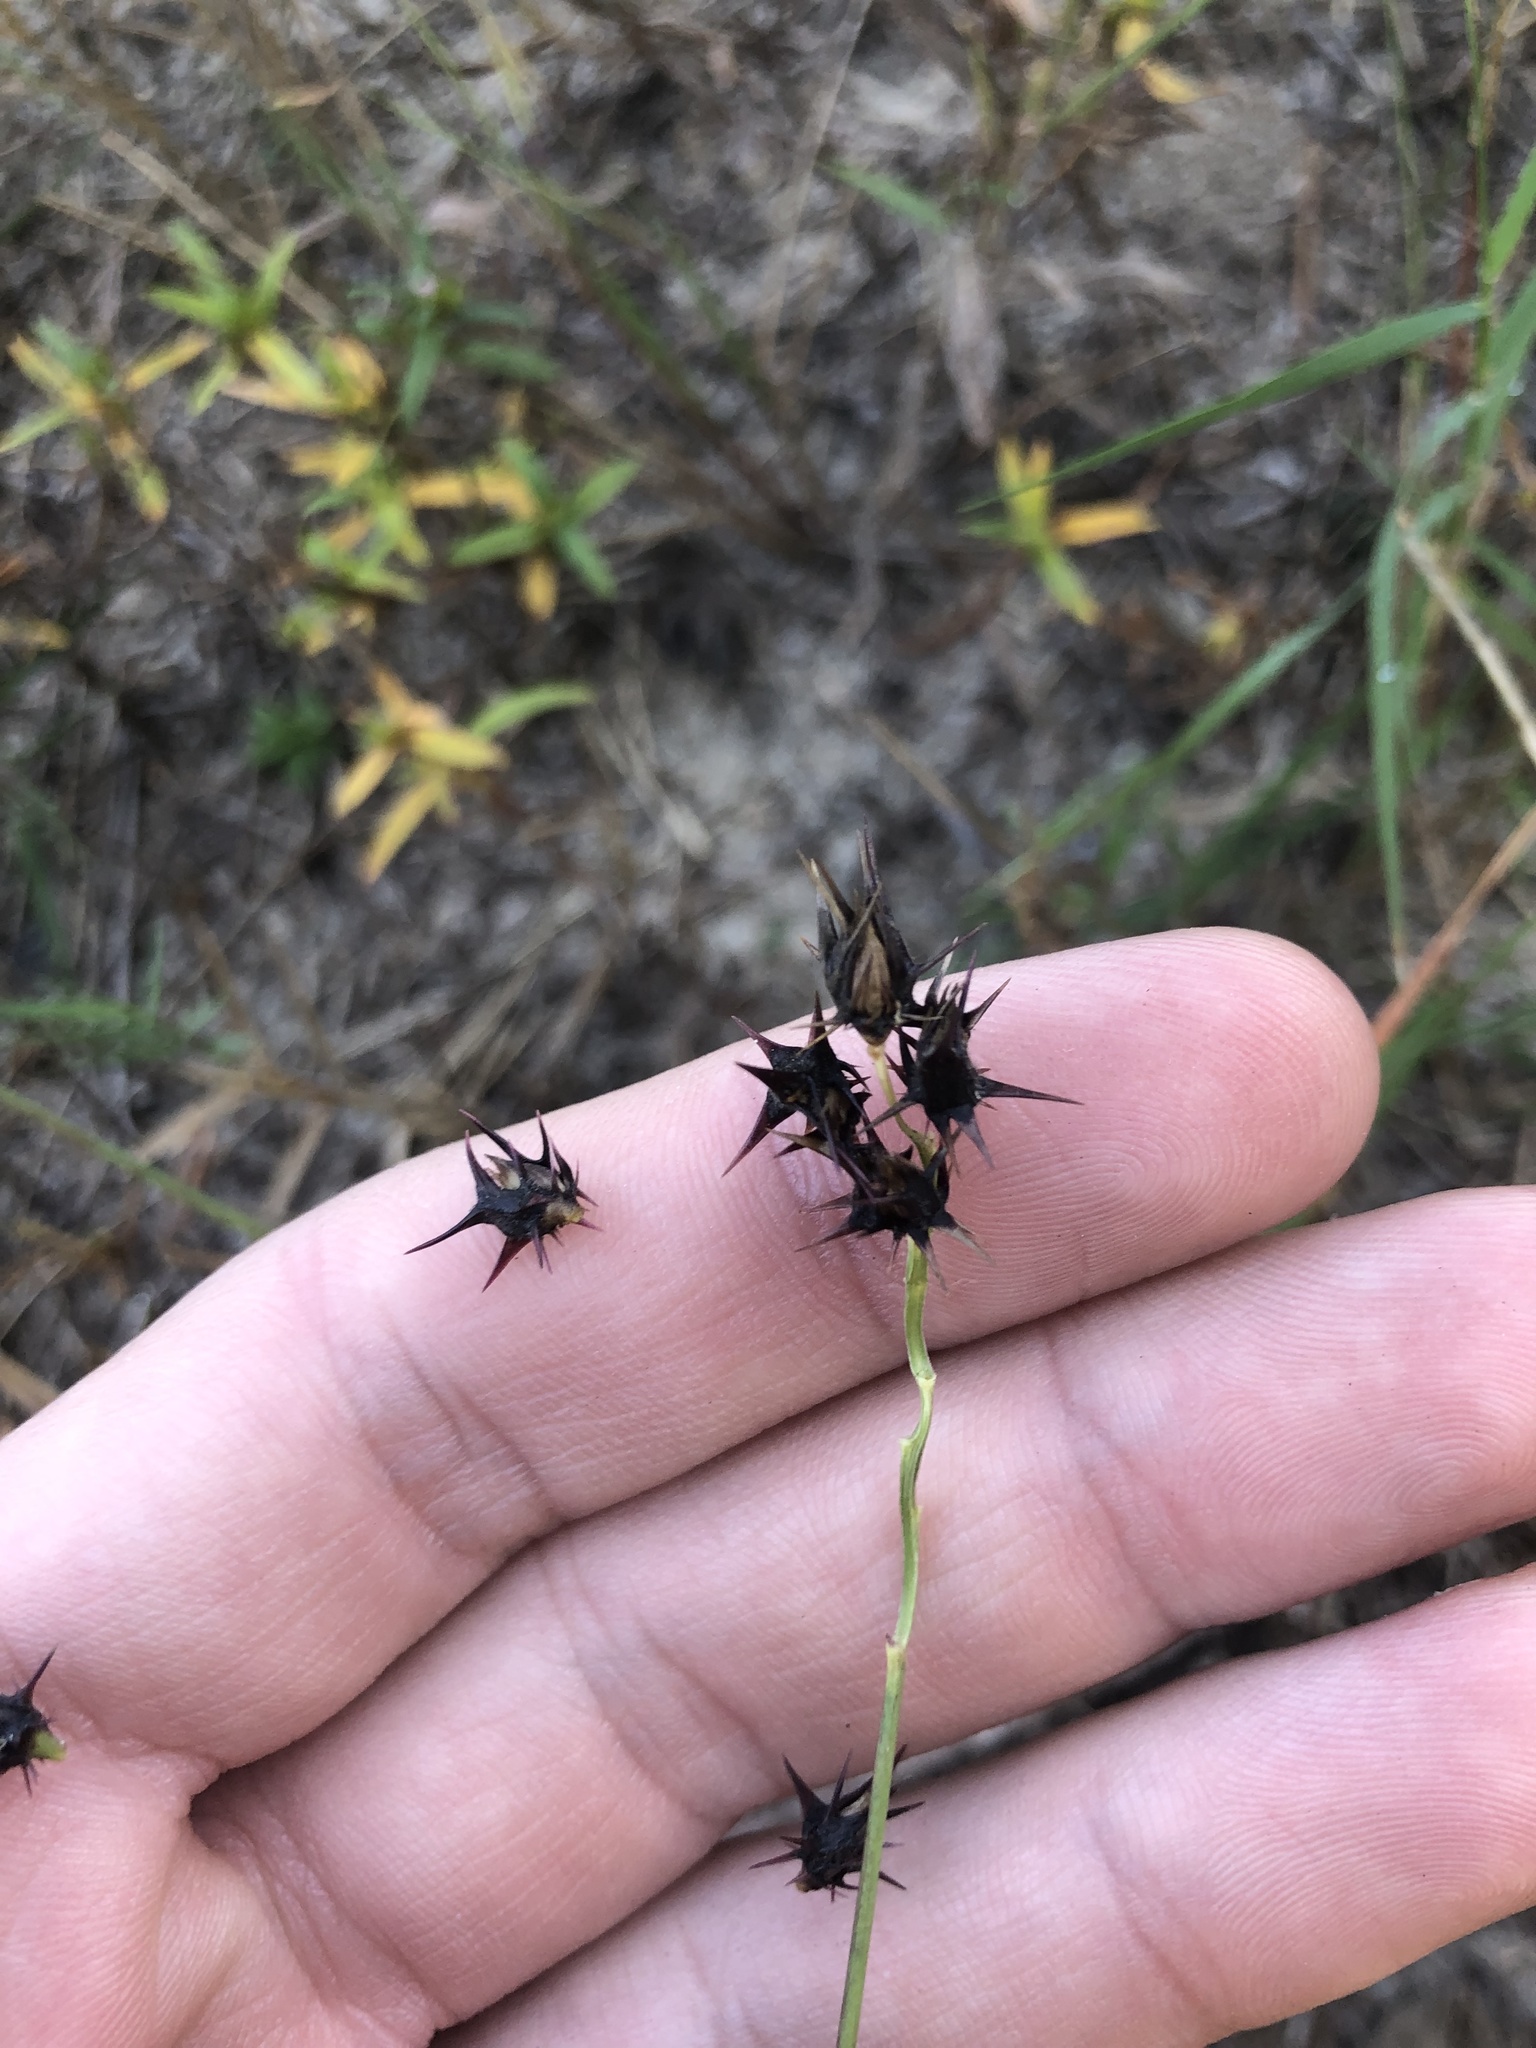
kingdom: Plantae
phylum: Tracheophyta
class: Liliopsida
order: Poales
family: Poaceae
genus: Cenchrus
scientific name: Cenchrus spinifex
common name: Coast sandbur
